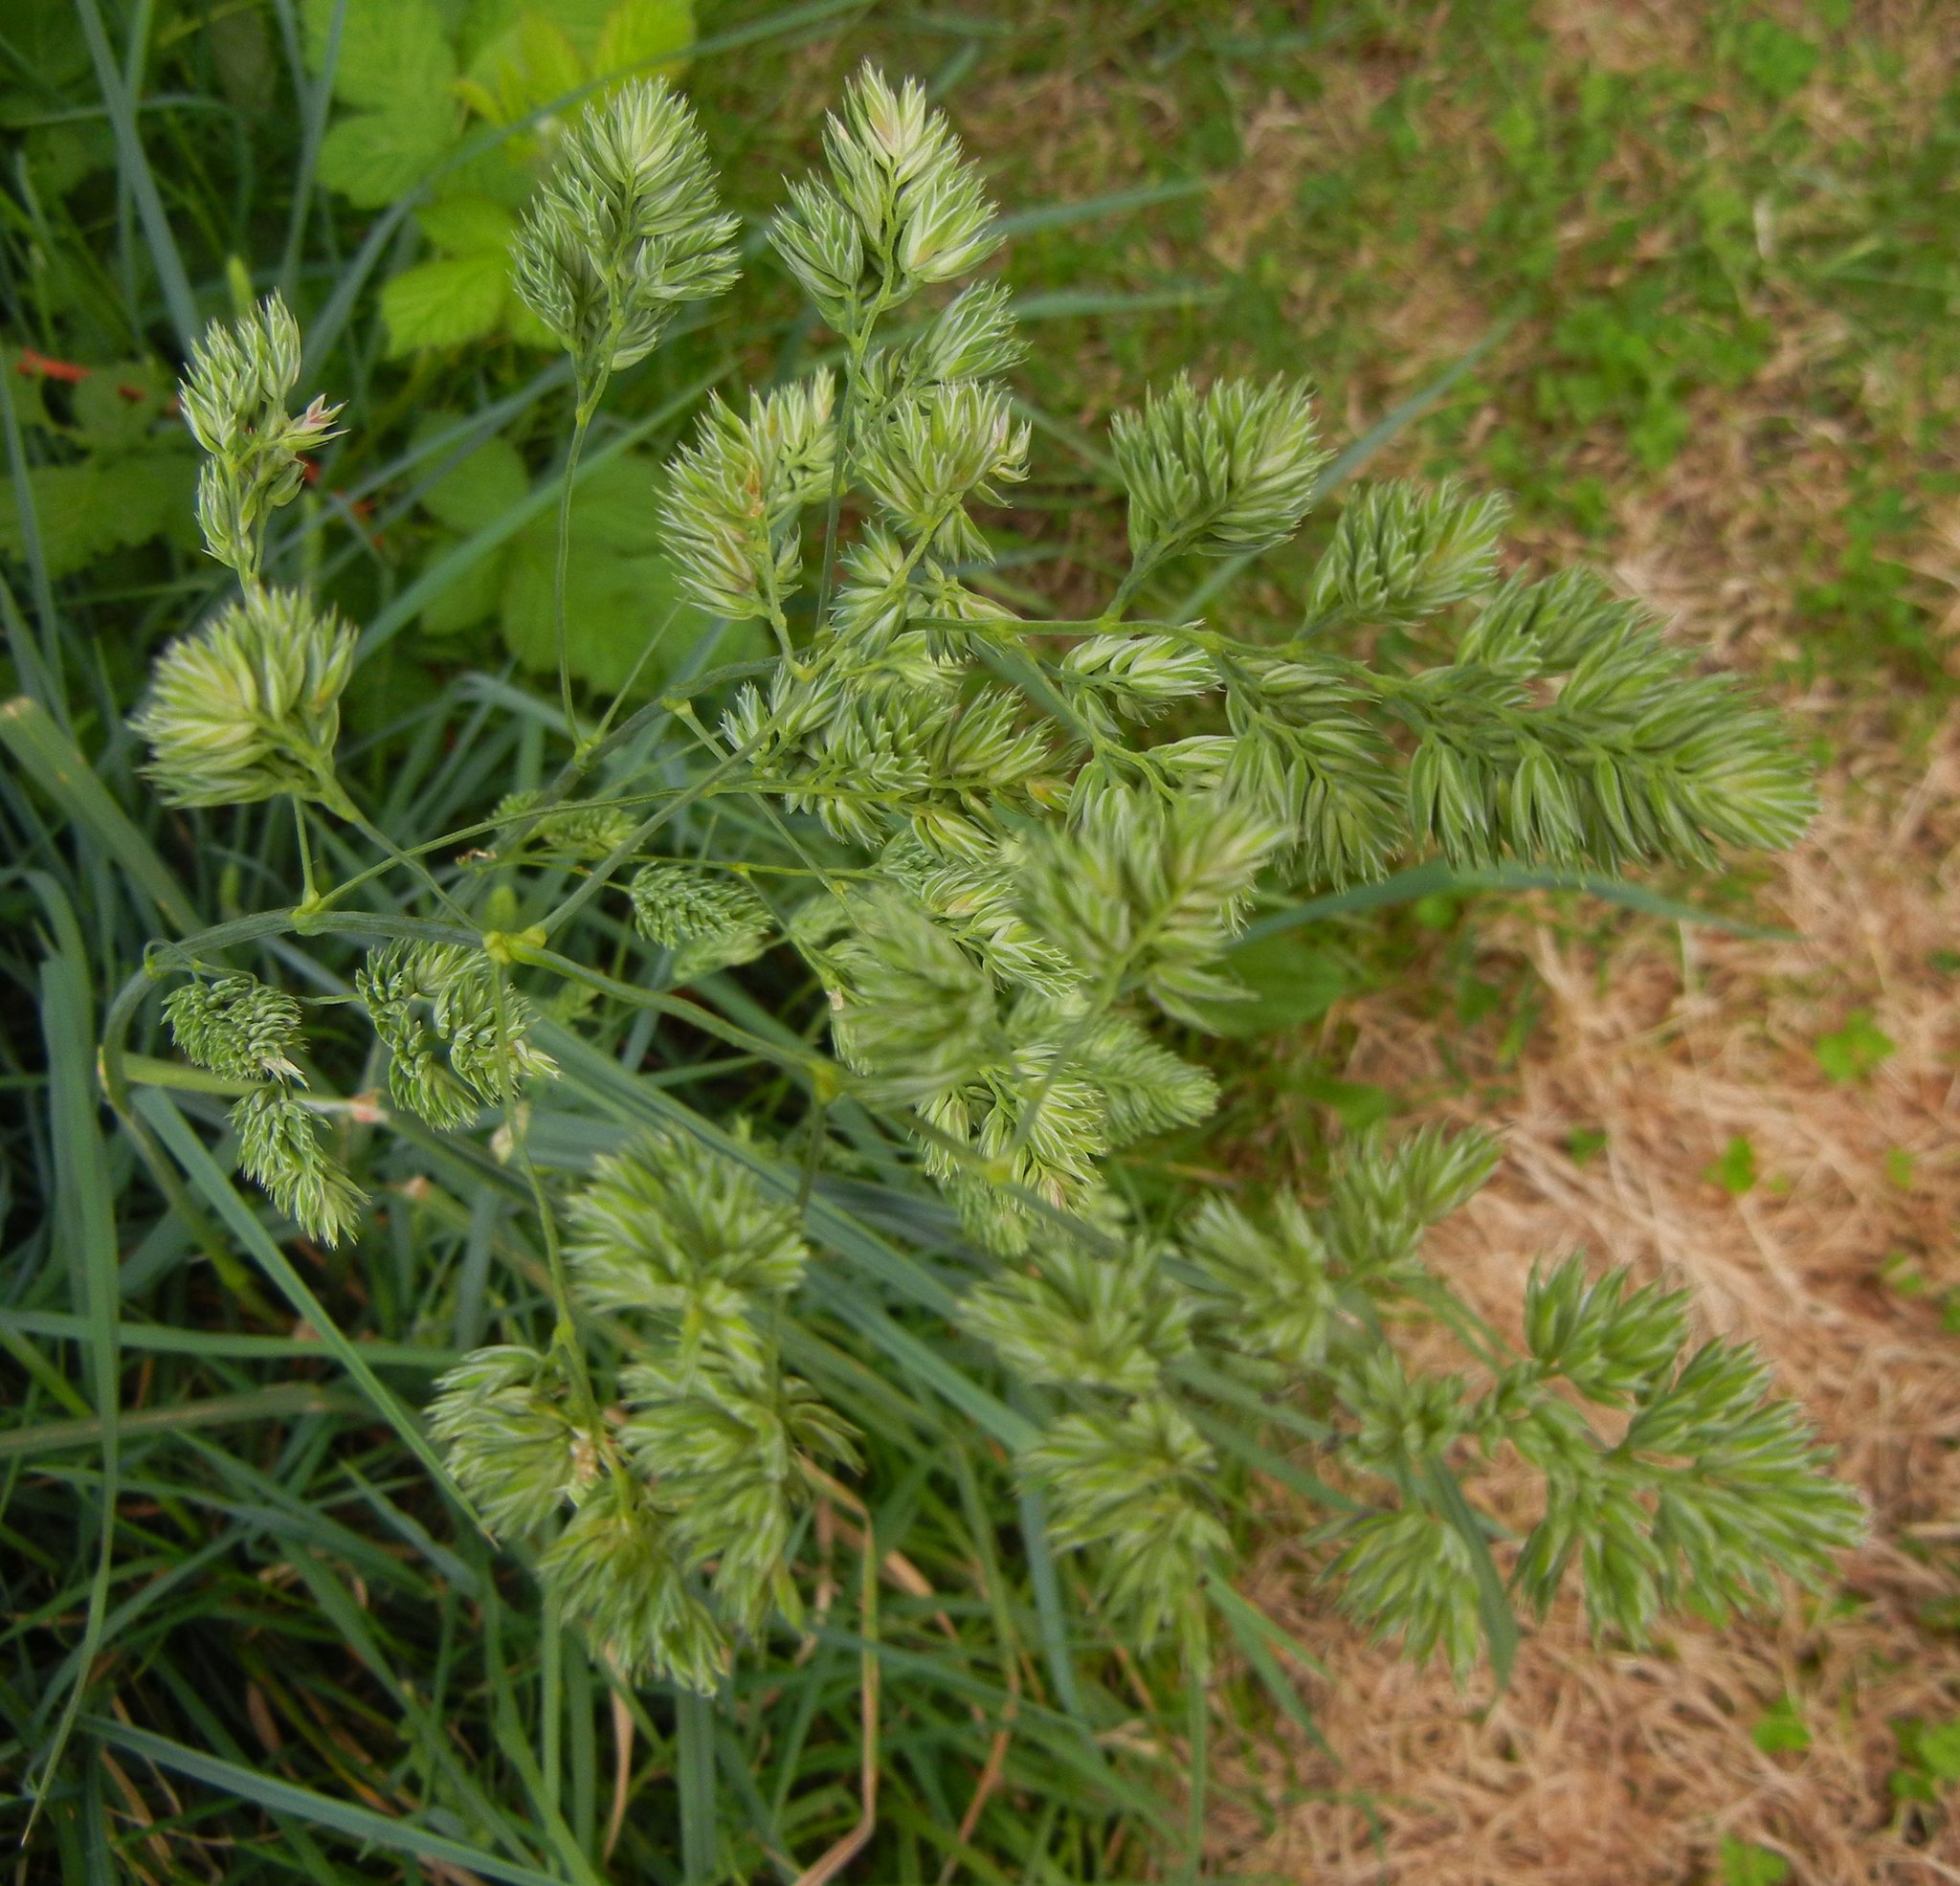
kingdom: Plantae
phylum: Tracheophyta
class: Liliopsida
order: Poales
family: Poaceae
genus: Dactylis
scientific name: Dactylis glomerata
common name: Orchardgrass
